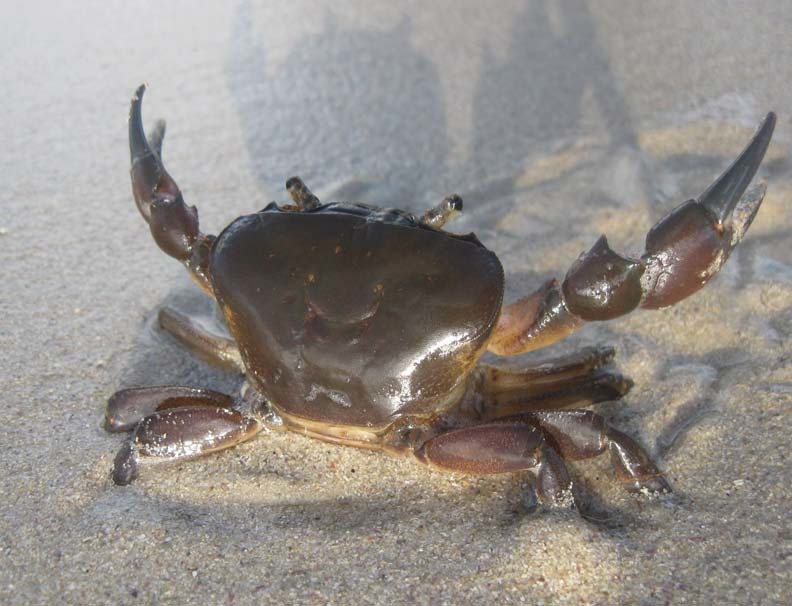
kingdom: Animalia
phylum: Arthropoda
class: Malacostraca
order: Decapoda
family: Potamonautidae
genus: Potamonautes
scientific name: Potamonautes perlatus
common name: Cape river crab
